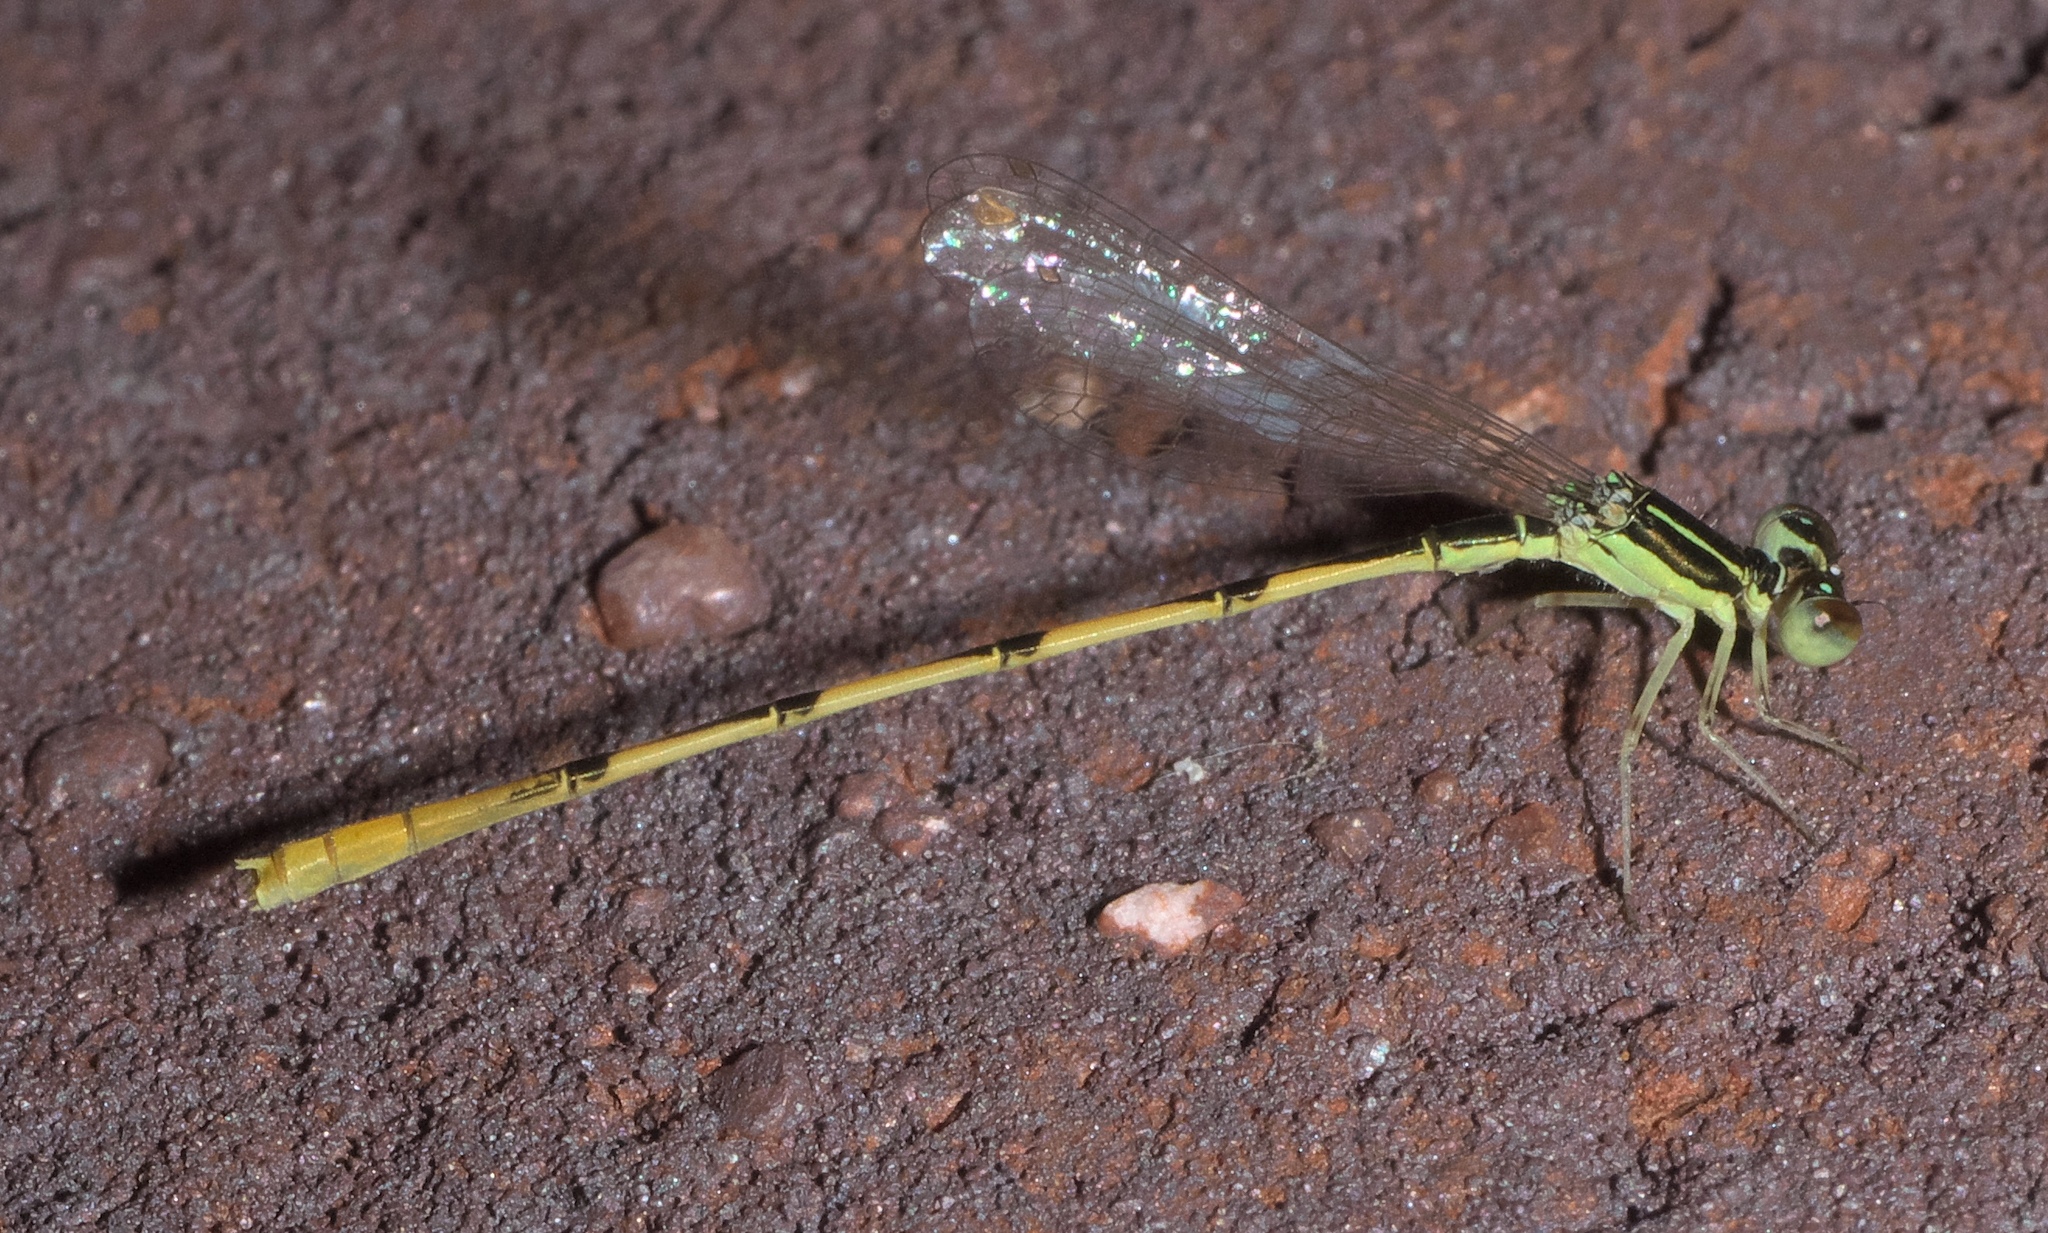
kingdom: Animalia
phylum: Arthropoda
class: Insecta
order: Odonata
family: Coenagrionidae
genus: Ischnura
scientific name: Ischnura hastata
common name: Citrine forktail
